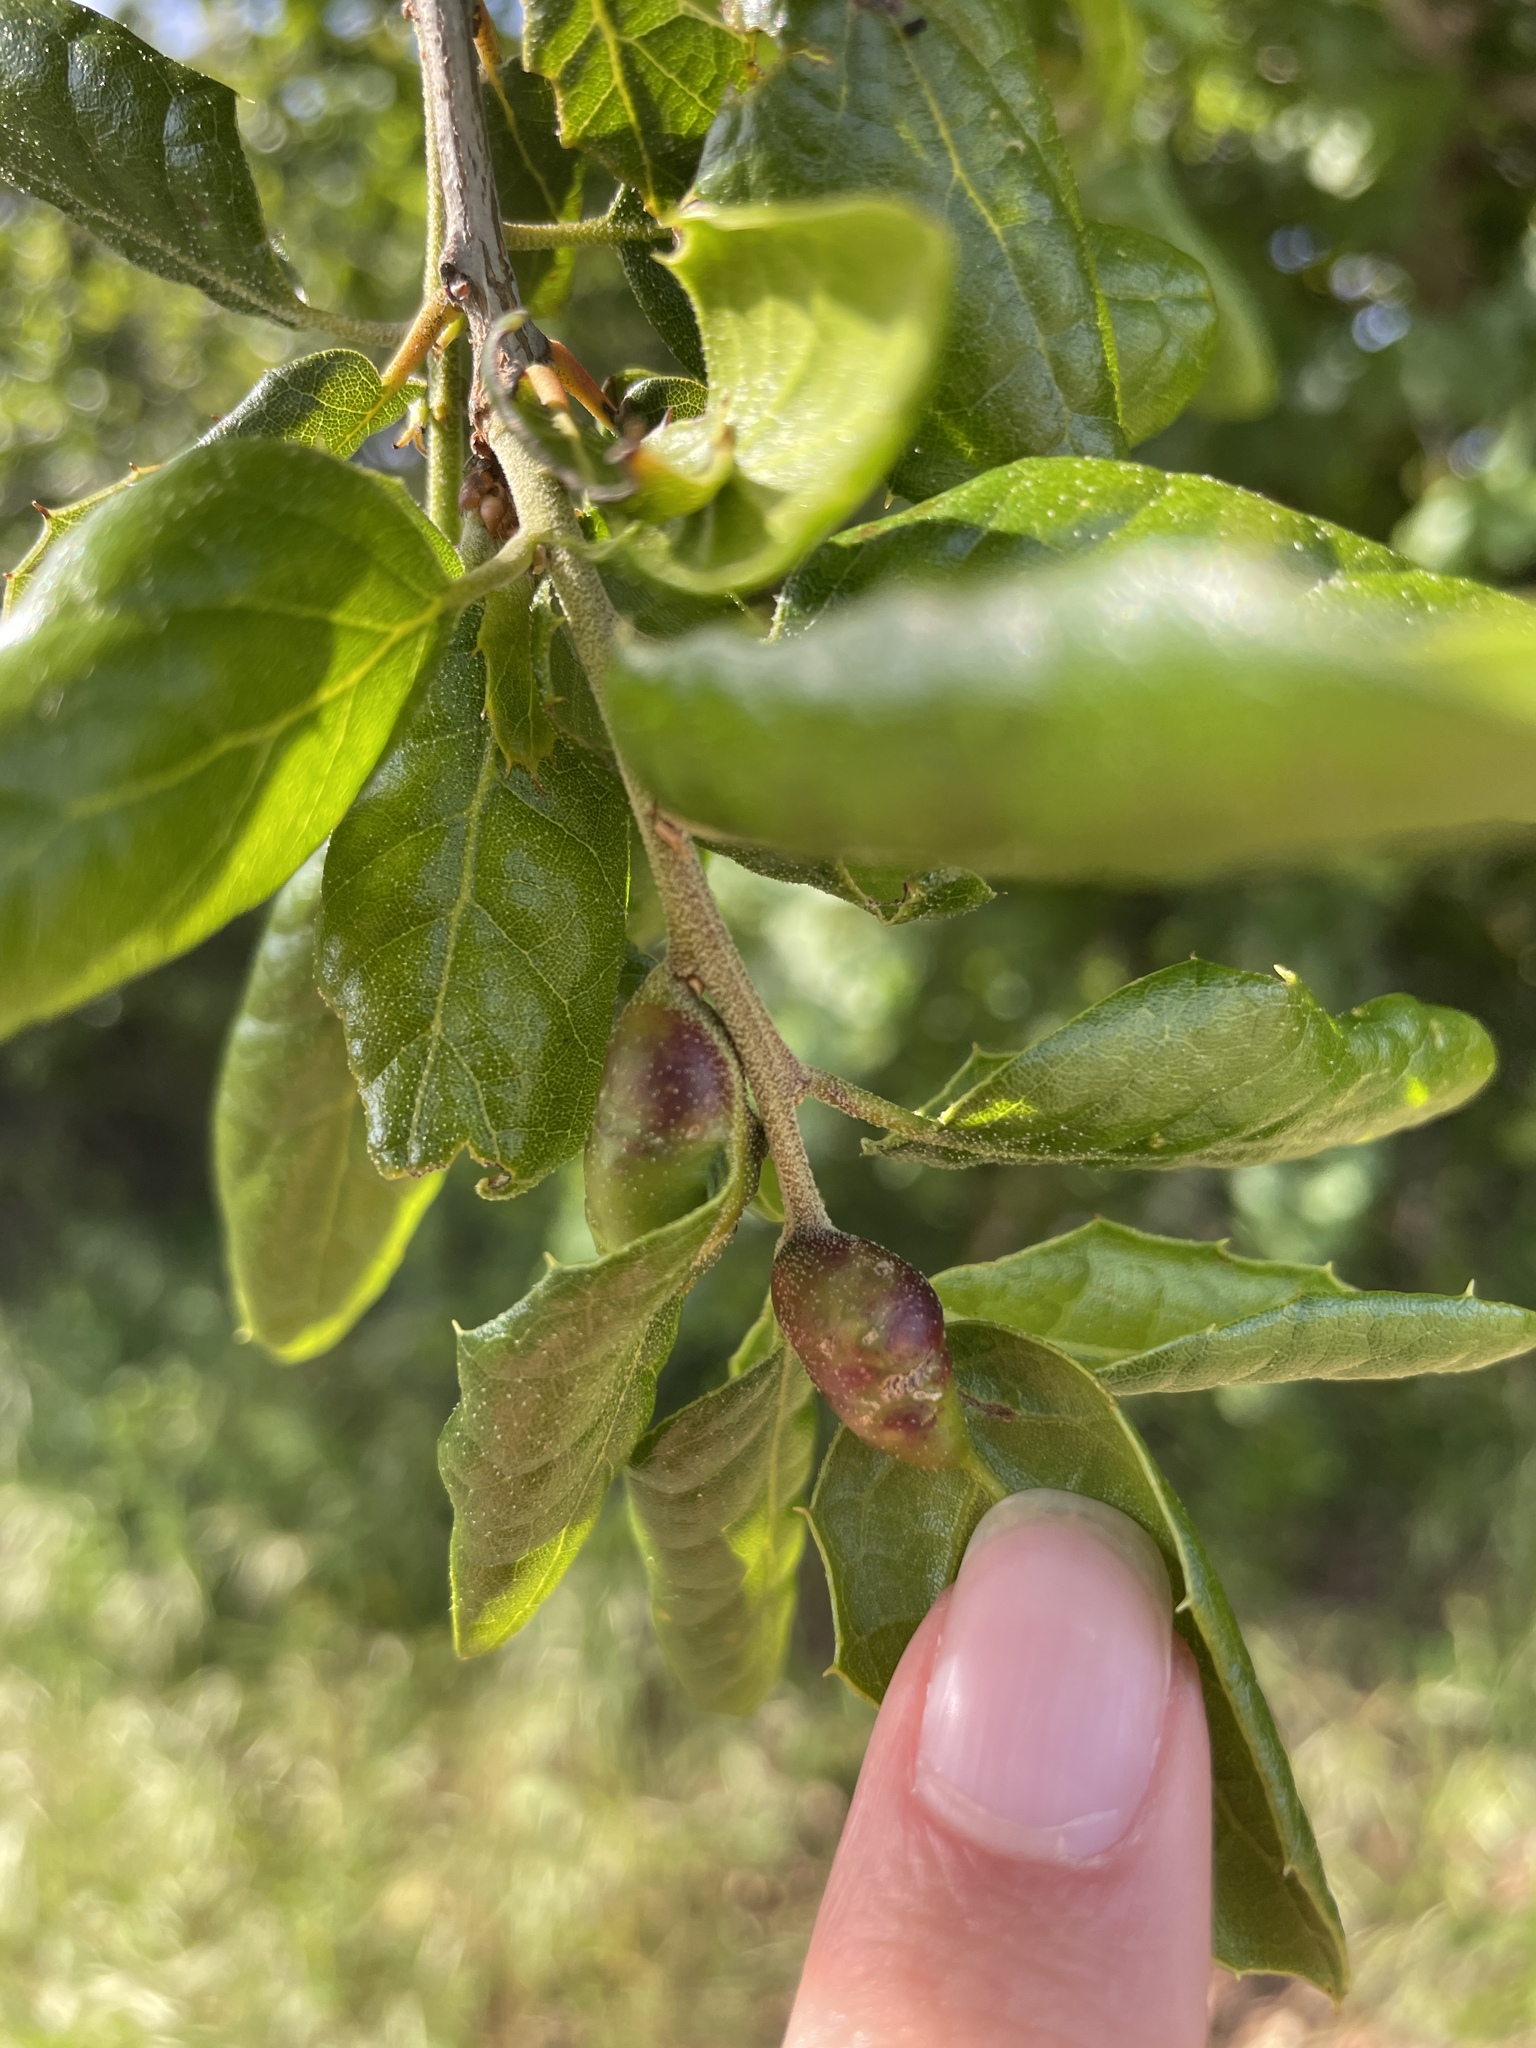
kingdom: Animalia
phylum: Arthropoda
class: Insecta
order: Hymenoptera
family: Cynipidae
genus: Melikaiella
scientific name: Melikaiella
